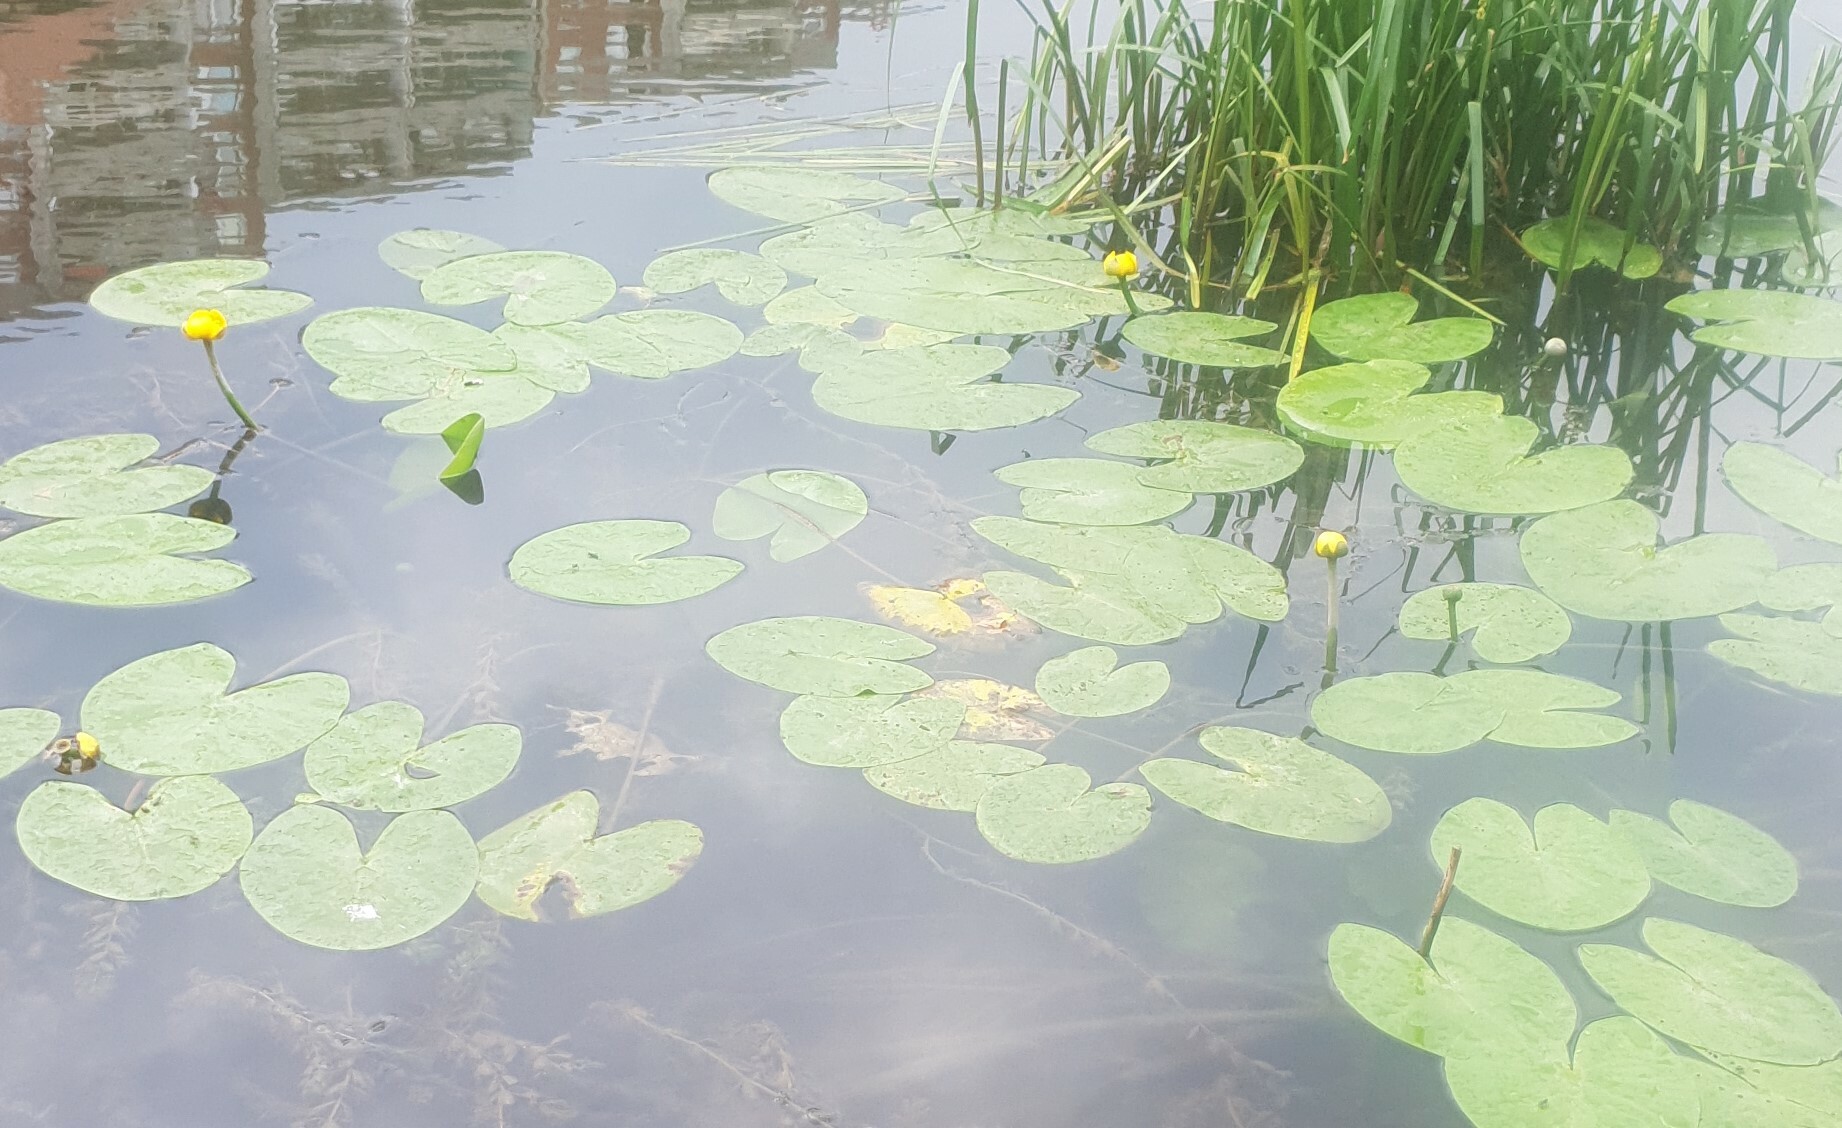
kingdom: Plantae
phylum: Tracheophyta
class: Magnoliopsida
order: Nymphaeales
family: Nymphaeaceae
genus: Nuphar
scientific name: Nuphar lutea
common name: Yellow water-lily
